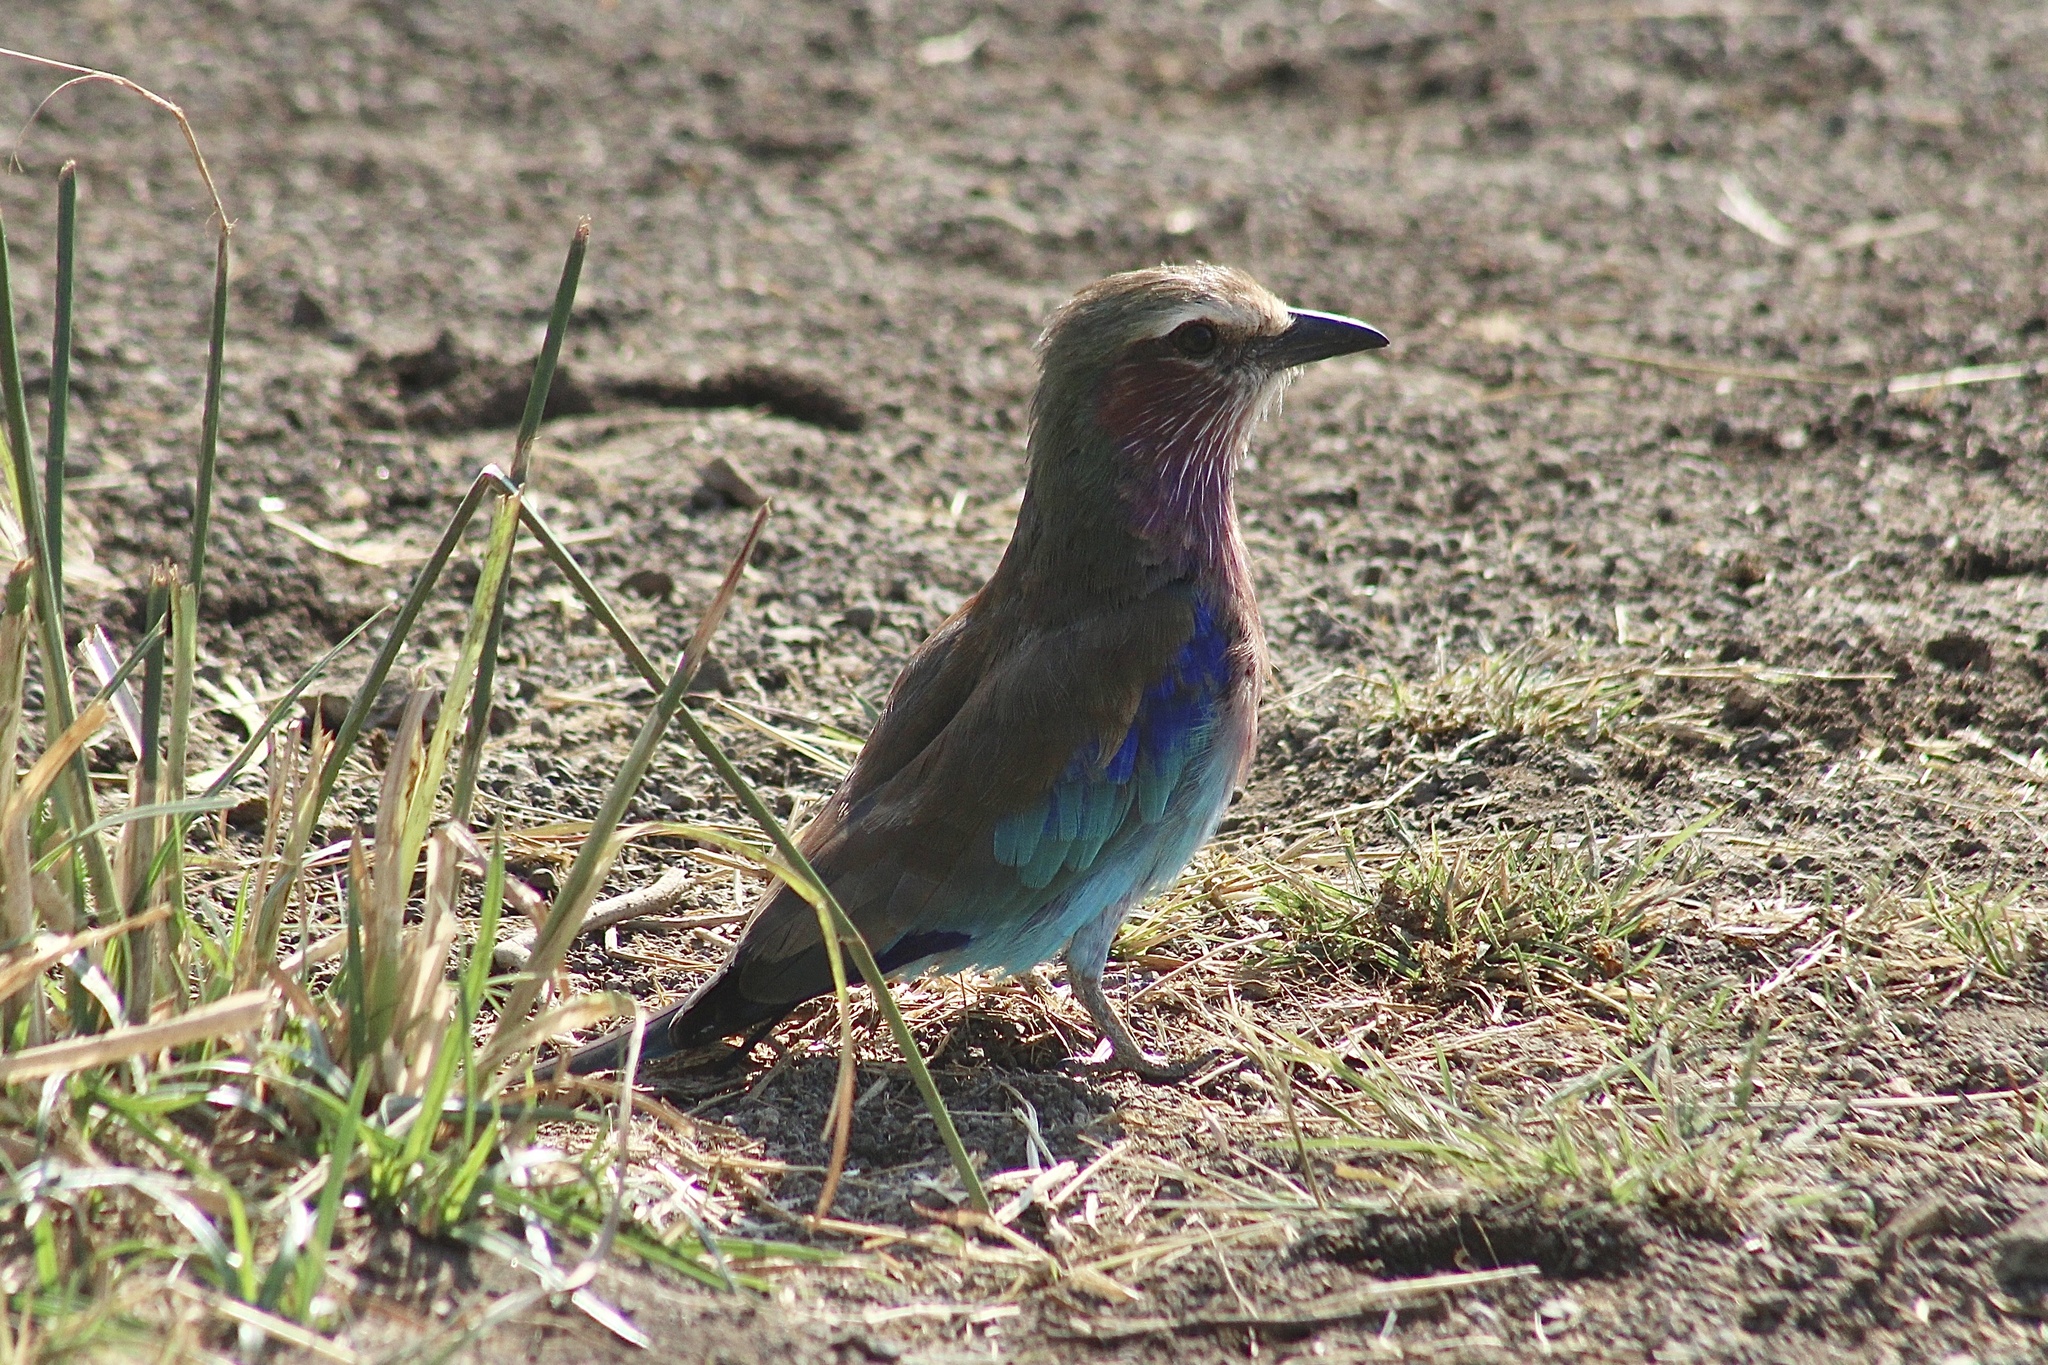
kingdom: Animalia
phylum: Chordata
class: Aves
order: Coraciiformes
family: Coraciidae
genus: Coracias
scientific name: Coracias caudatus
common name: Lilac-breasted roller
